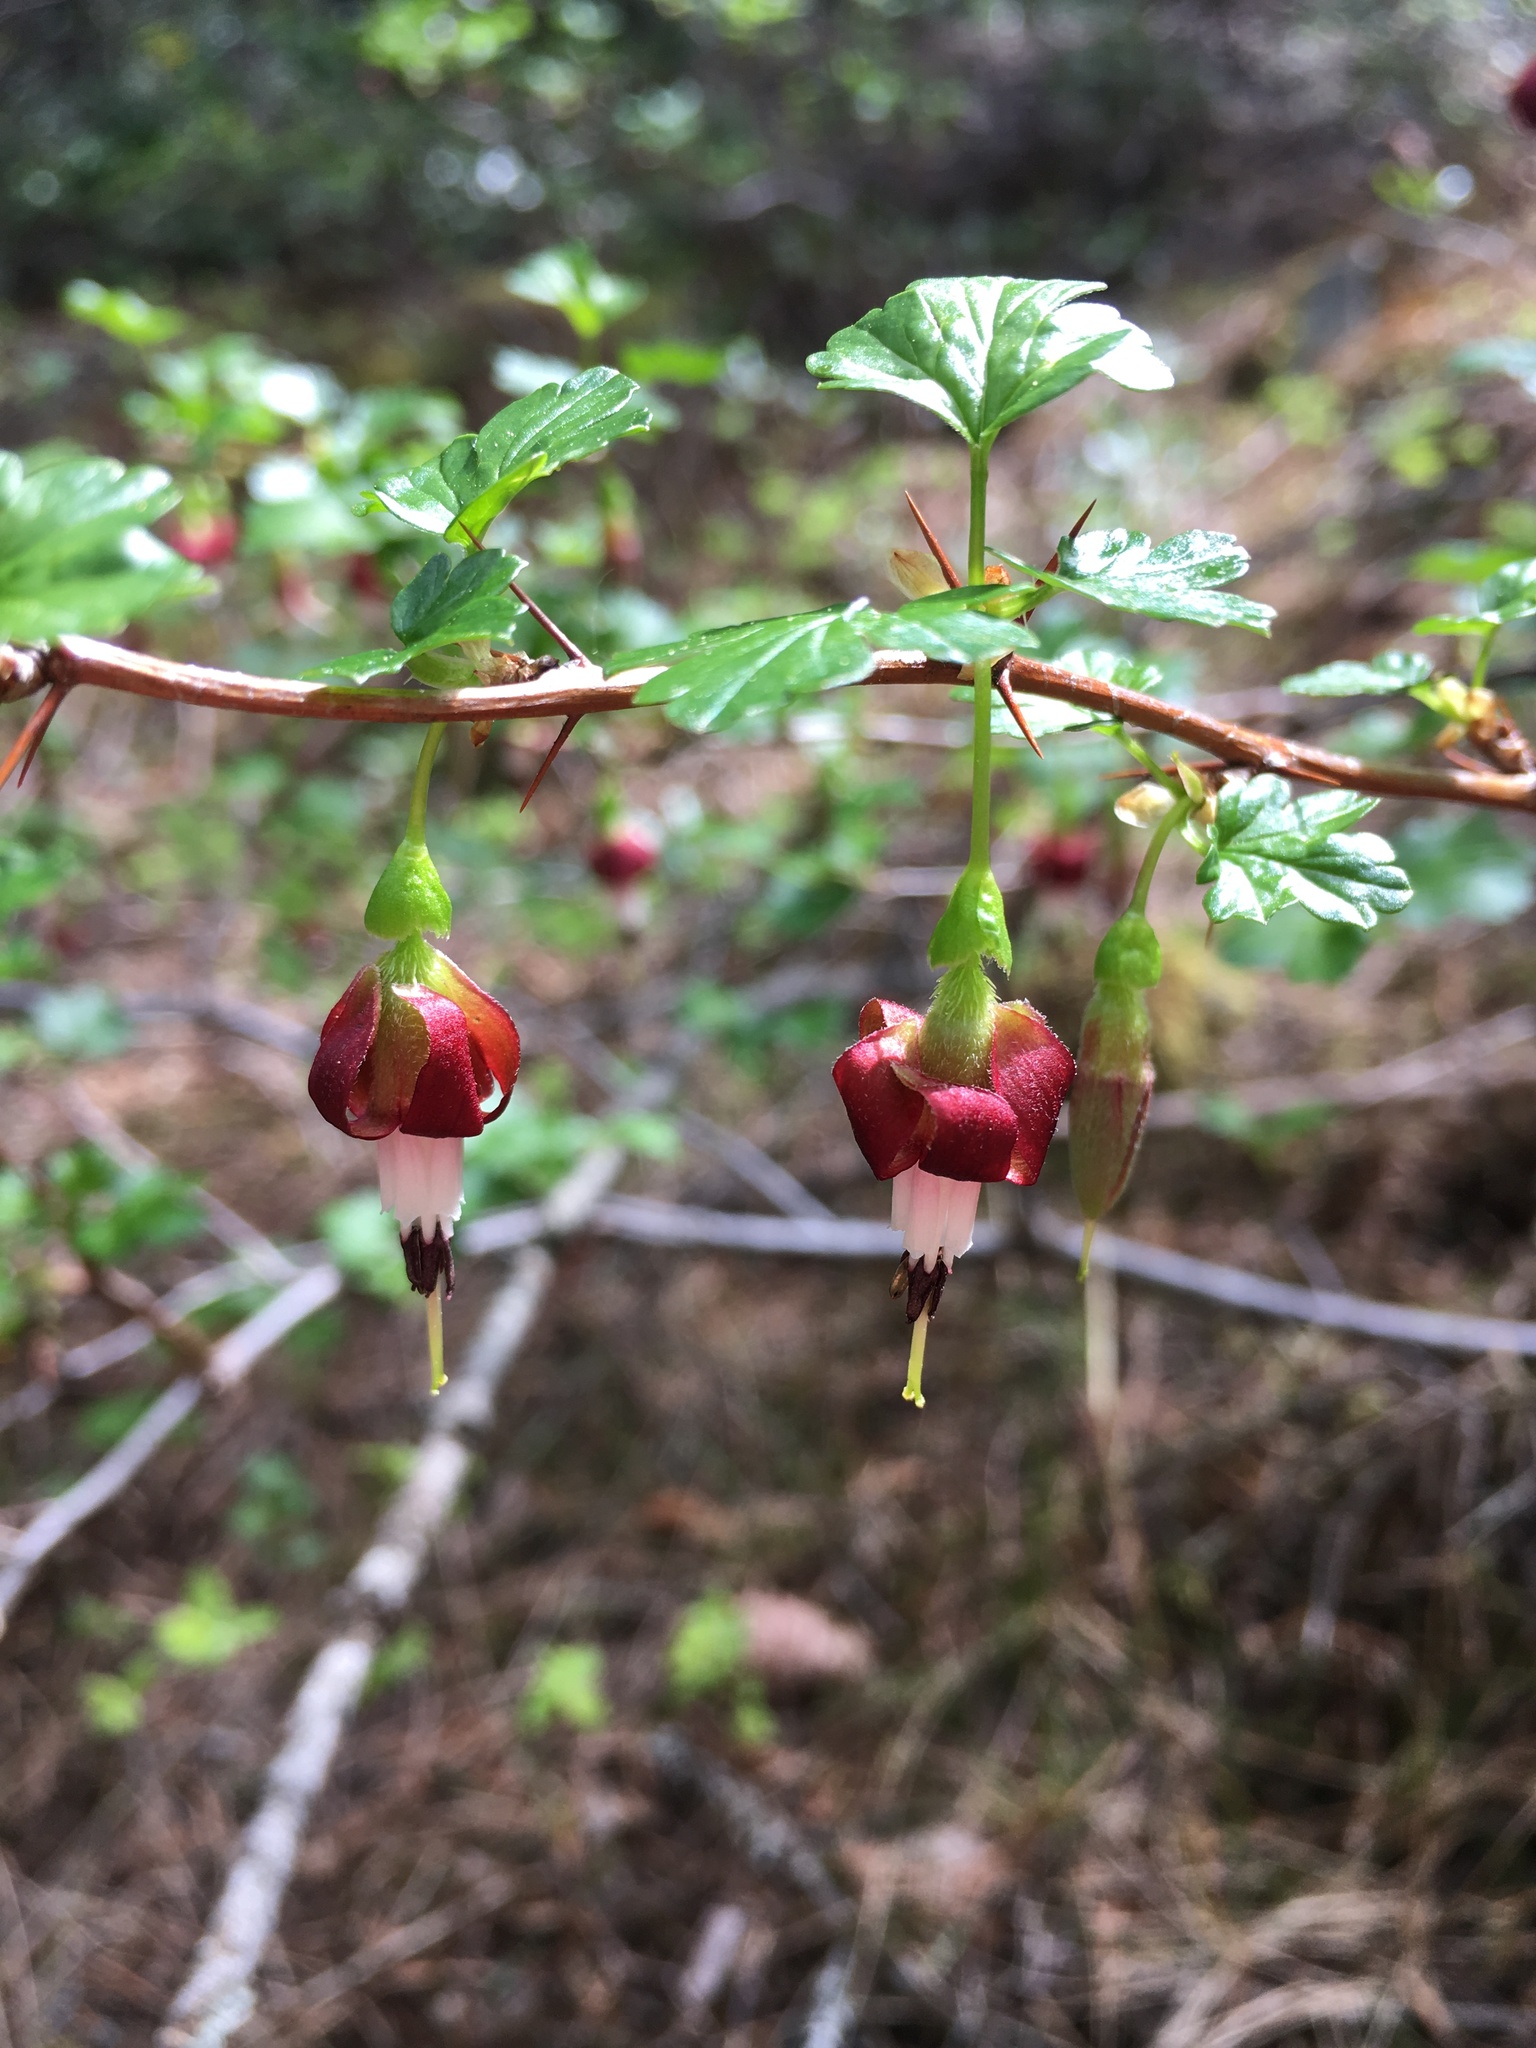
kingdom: Plantae
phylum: Tracheophyta
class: Magnoliopsida
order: Saxifragales
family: Grossulariaceae
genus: Ribes
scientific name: Ribes roezlii
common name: Sierra gooseberry
